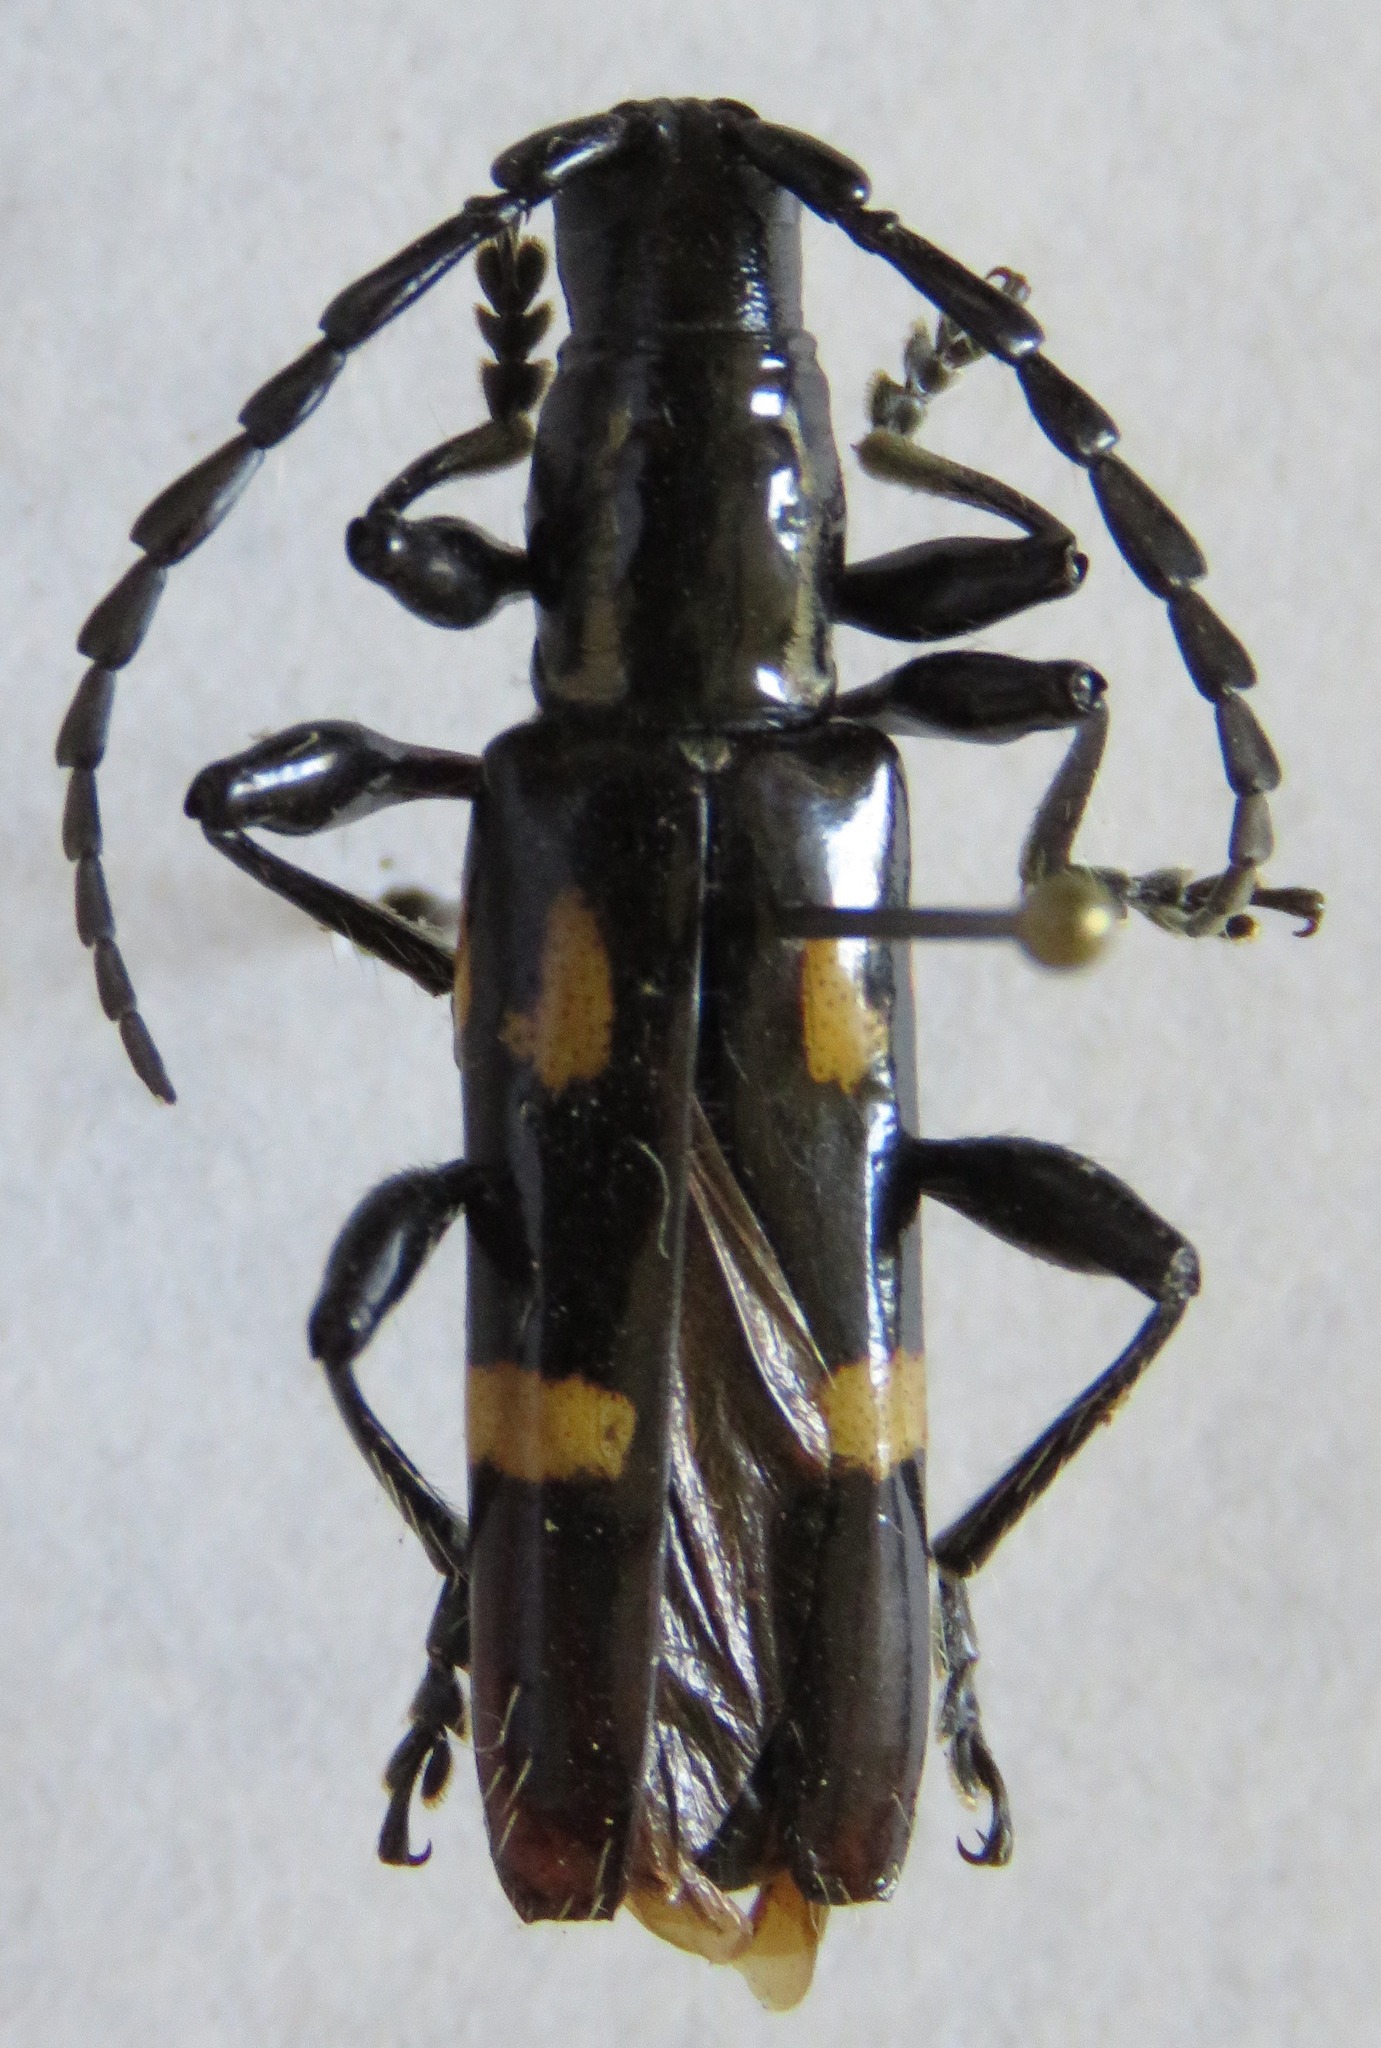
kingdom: Animalia
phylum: Arthropoda
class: Insecta
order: Coleoptera
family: Cerambycidae
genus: Platyarthron
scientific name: Platyarthron chilense
